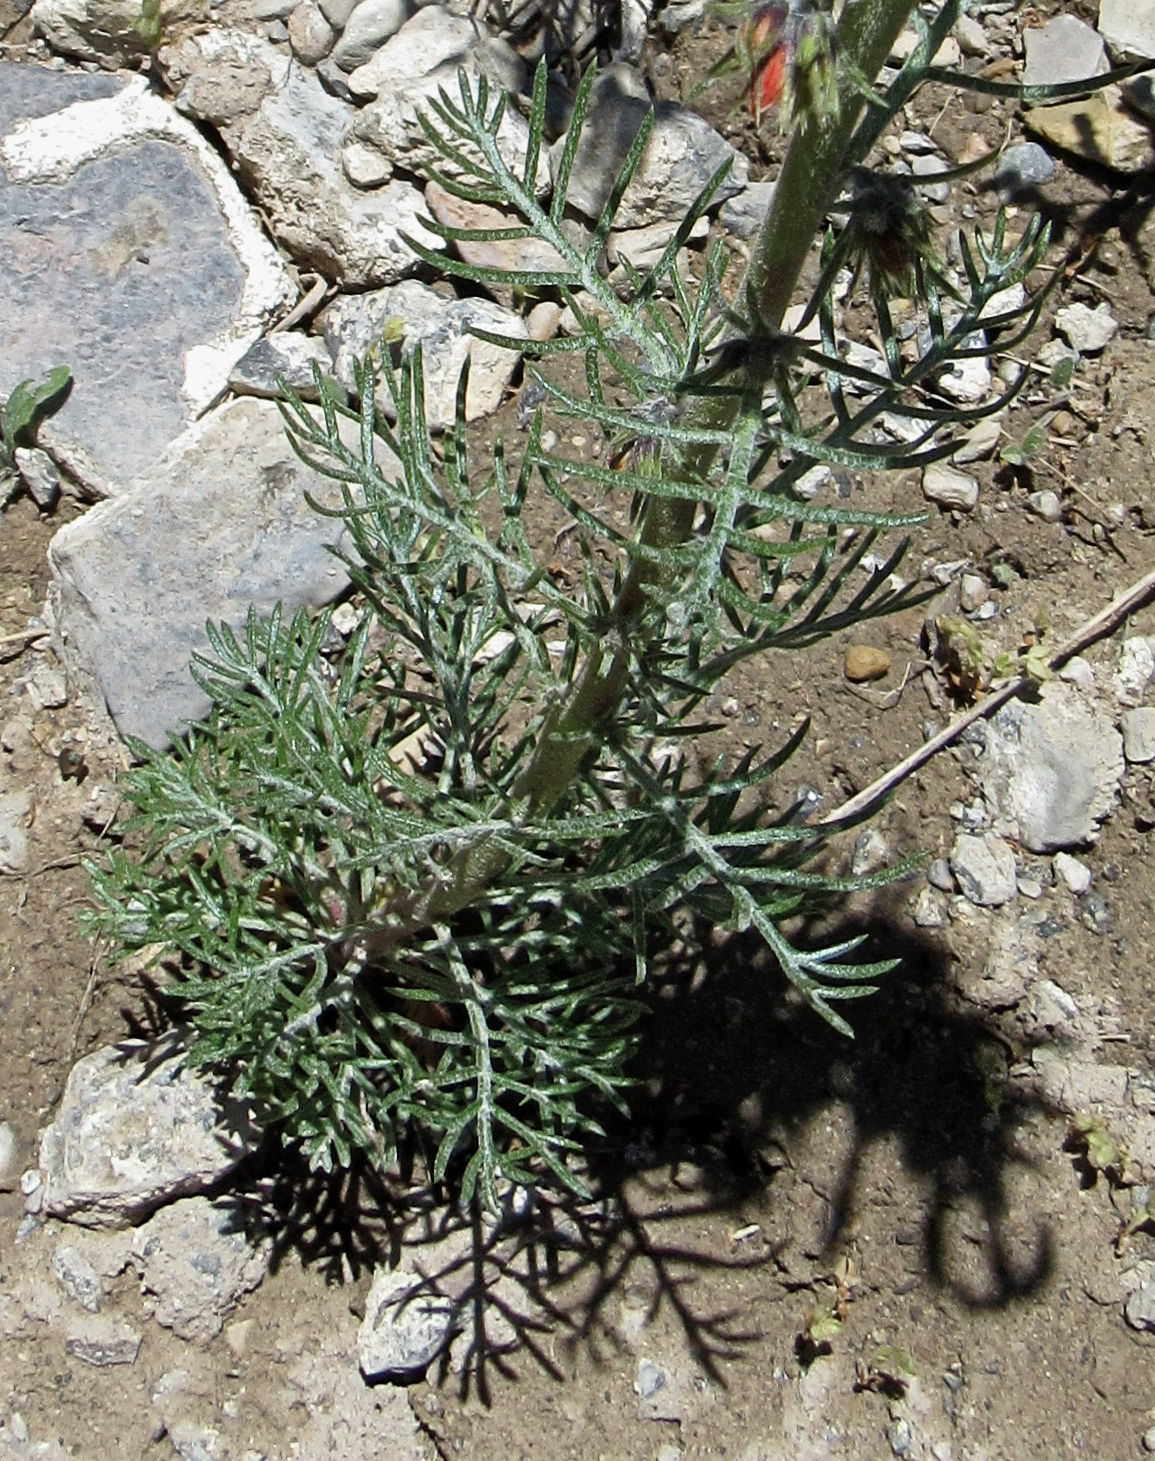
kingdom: Plantae
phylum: Tracheophyta
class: Magnoliopsida
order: Ericales
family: Polemoniaceae
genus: Ipomopsis
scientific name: Ipomopsis aggregata
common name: Scarlet gilia
